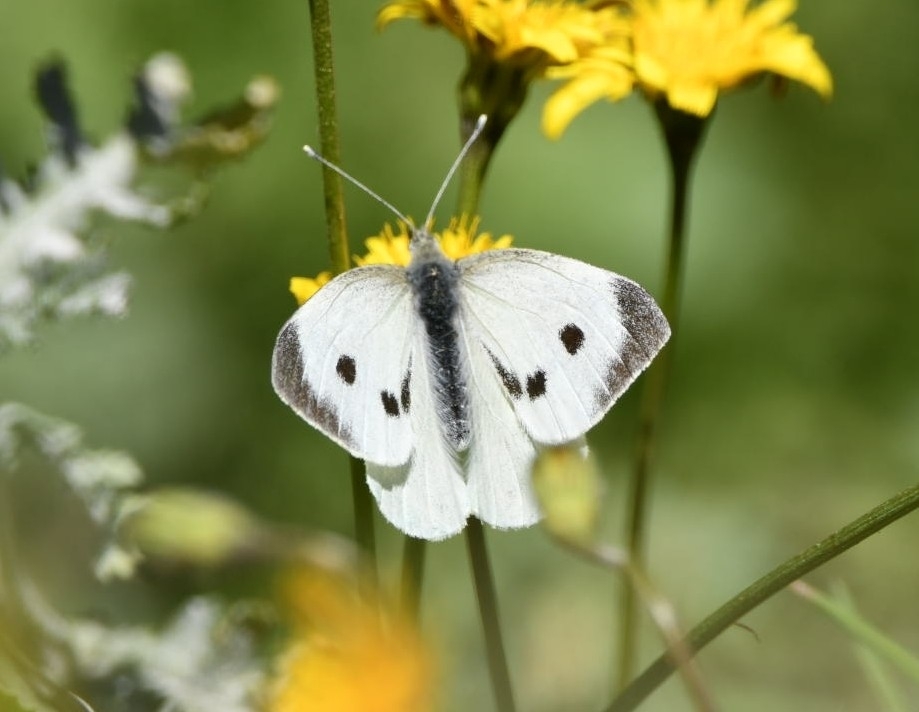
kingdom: Animalia
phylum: Arthropoda
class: Insecta
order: Lepidoptera
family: Pieridae
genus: Pieris
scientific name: Pieris brassicae
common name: Large white
